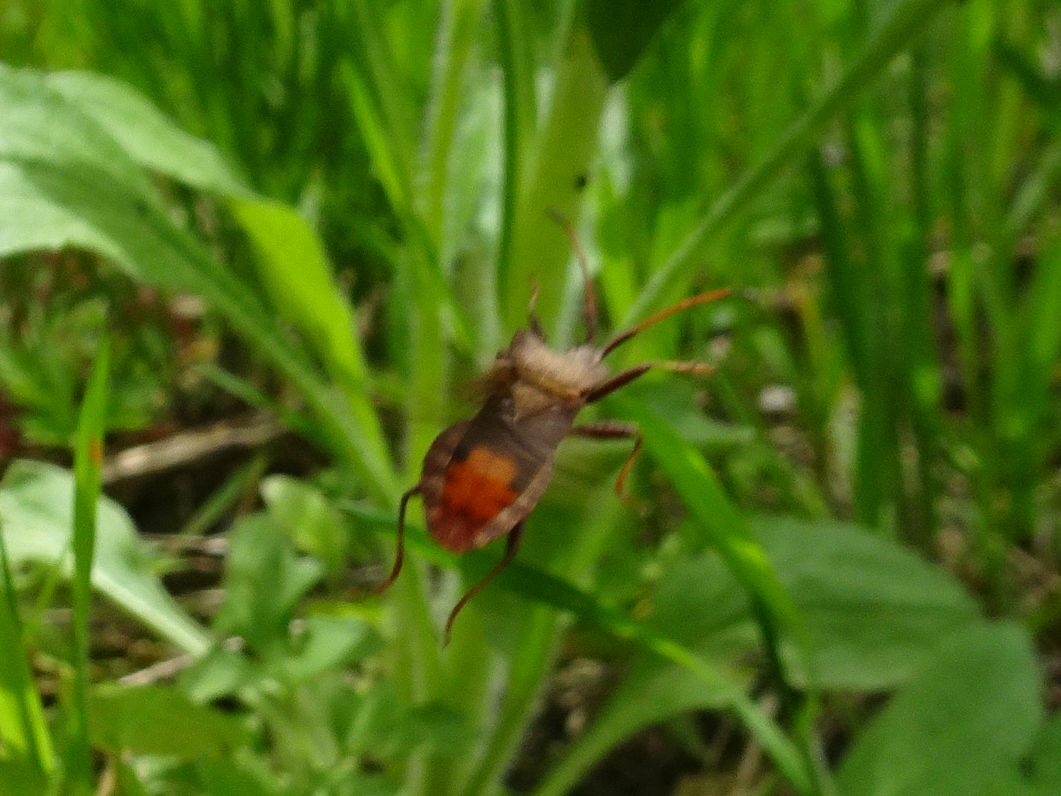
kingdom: Animalia
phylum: Arthropoda
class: Insecta
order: Hemiptera
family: Coreidae
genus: Coreus
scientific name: Coreus marginatus
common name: Dock bug
